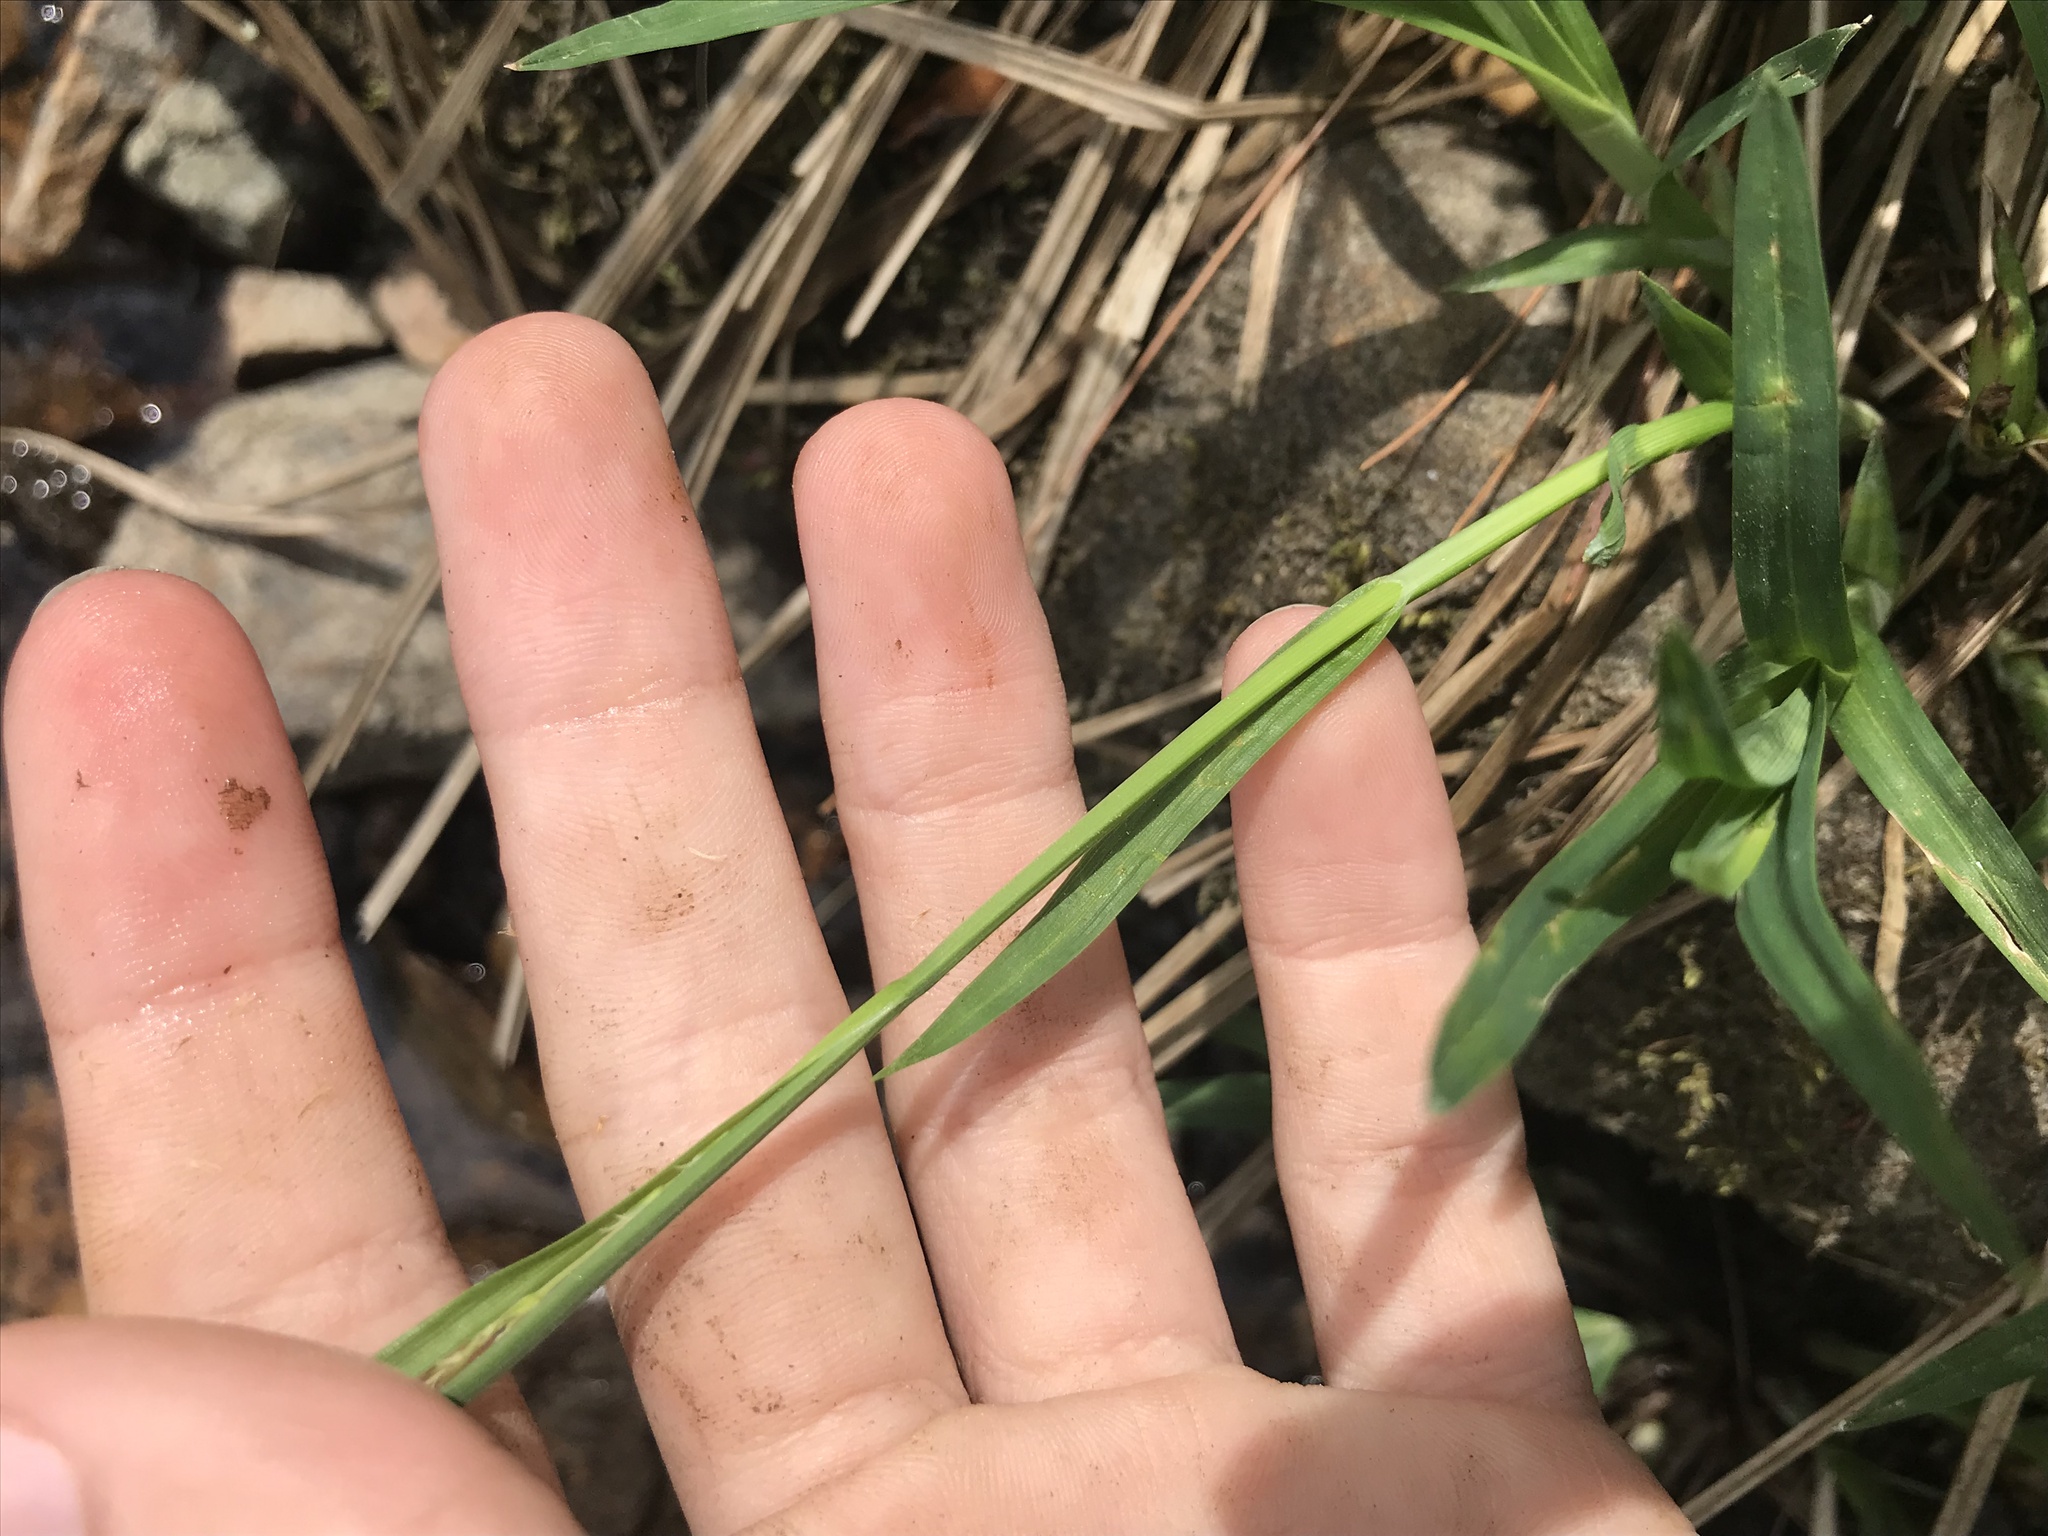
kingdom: Plantae
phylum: Tracheophyta
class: Liliopsida
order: Poales
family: Cyperaceae
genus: Carex
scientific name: Carex torta
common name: Twisted sedge
